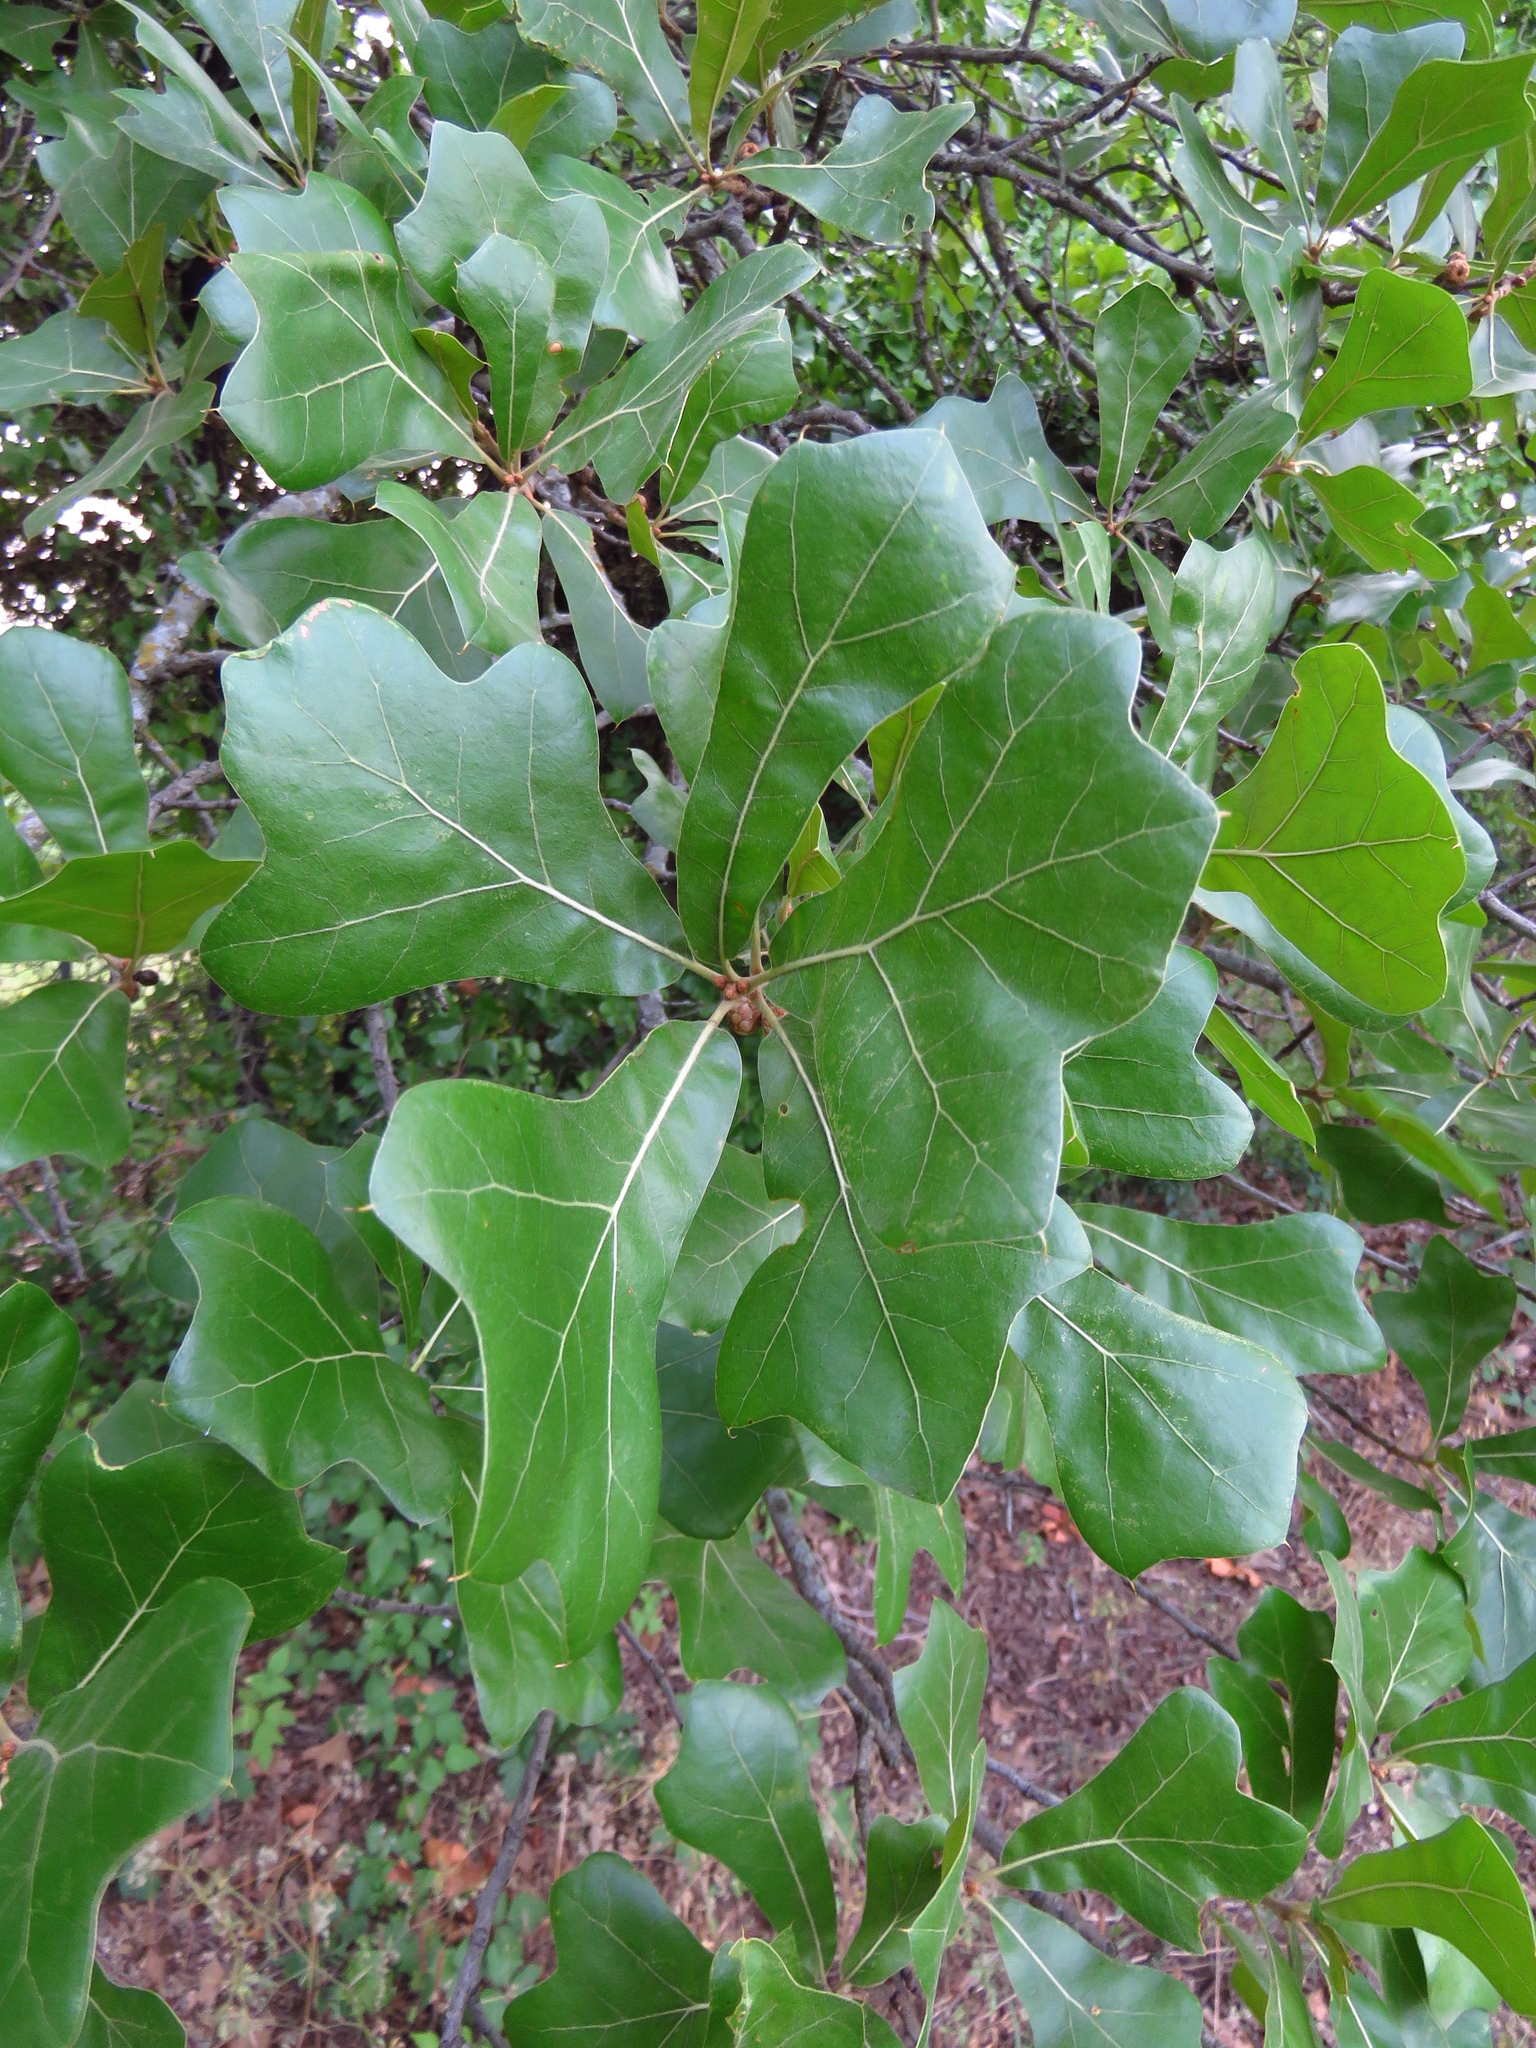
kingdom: Plantae
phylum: Tracheophyta
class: Magnoliopsida
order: Fagales
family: Fagaceae
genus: Quercus
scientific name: Quercus marilandica
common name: Blackjack oak
